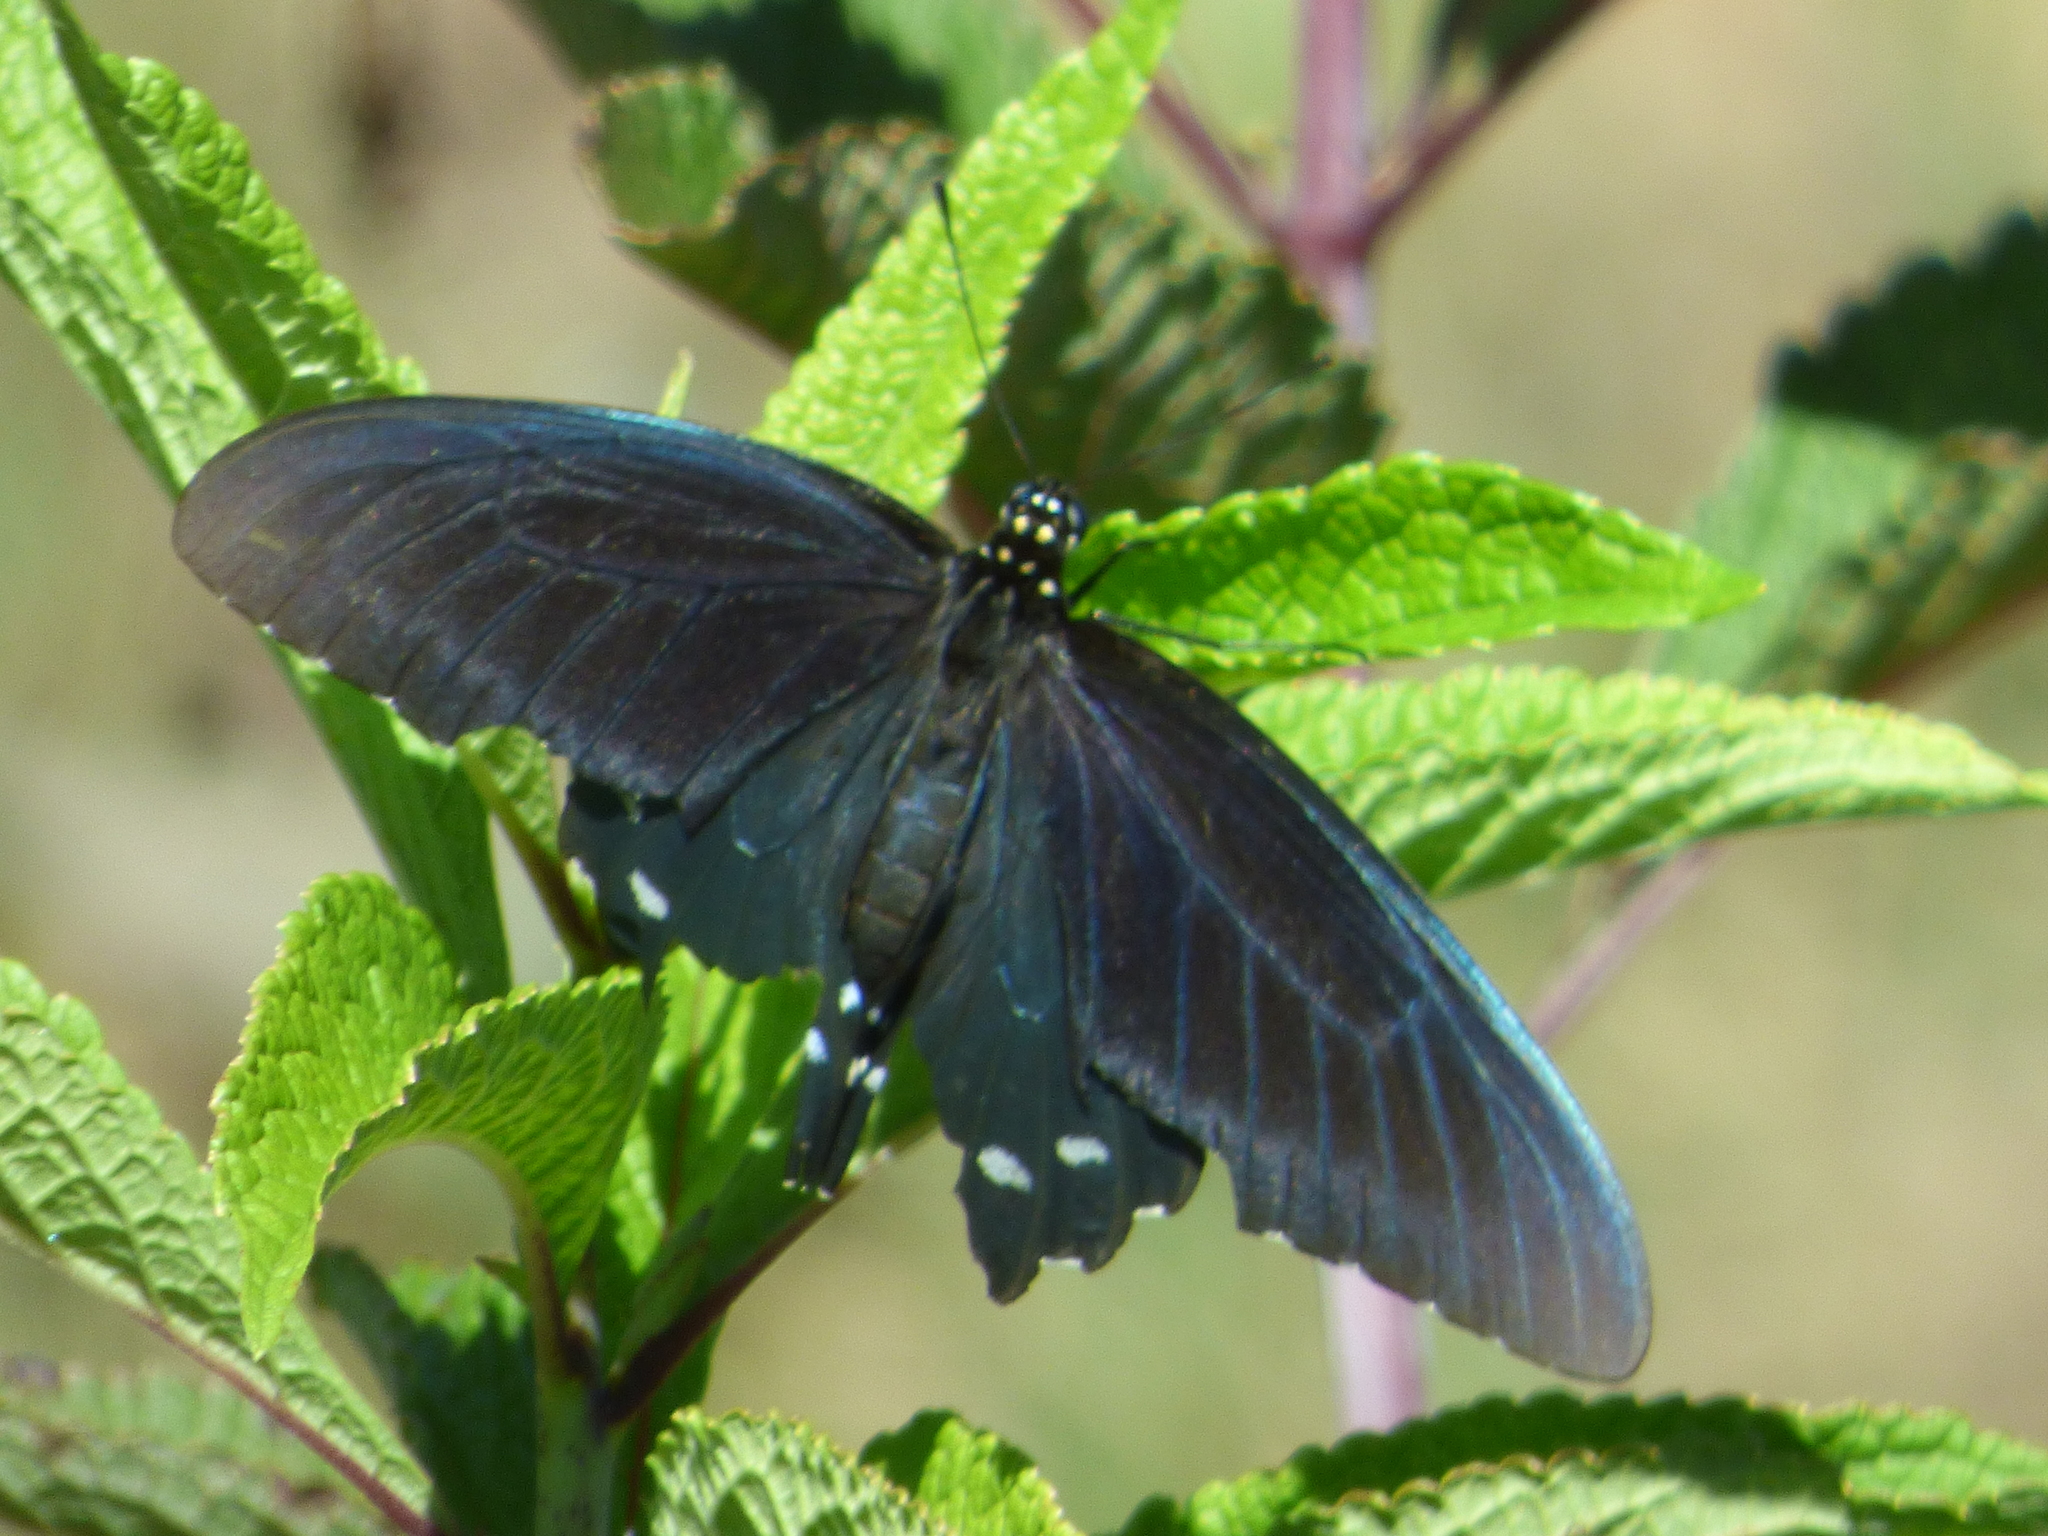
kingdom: Animalia
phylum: Arthropoda
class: Insecta
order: Lepidoptera
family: Papilionidae
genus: Battus
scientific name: Battus philenor
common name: Pipevine swallowtail
